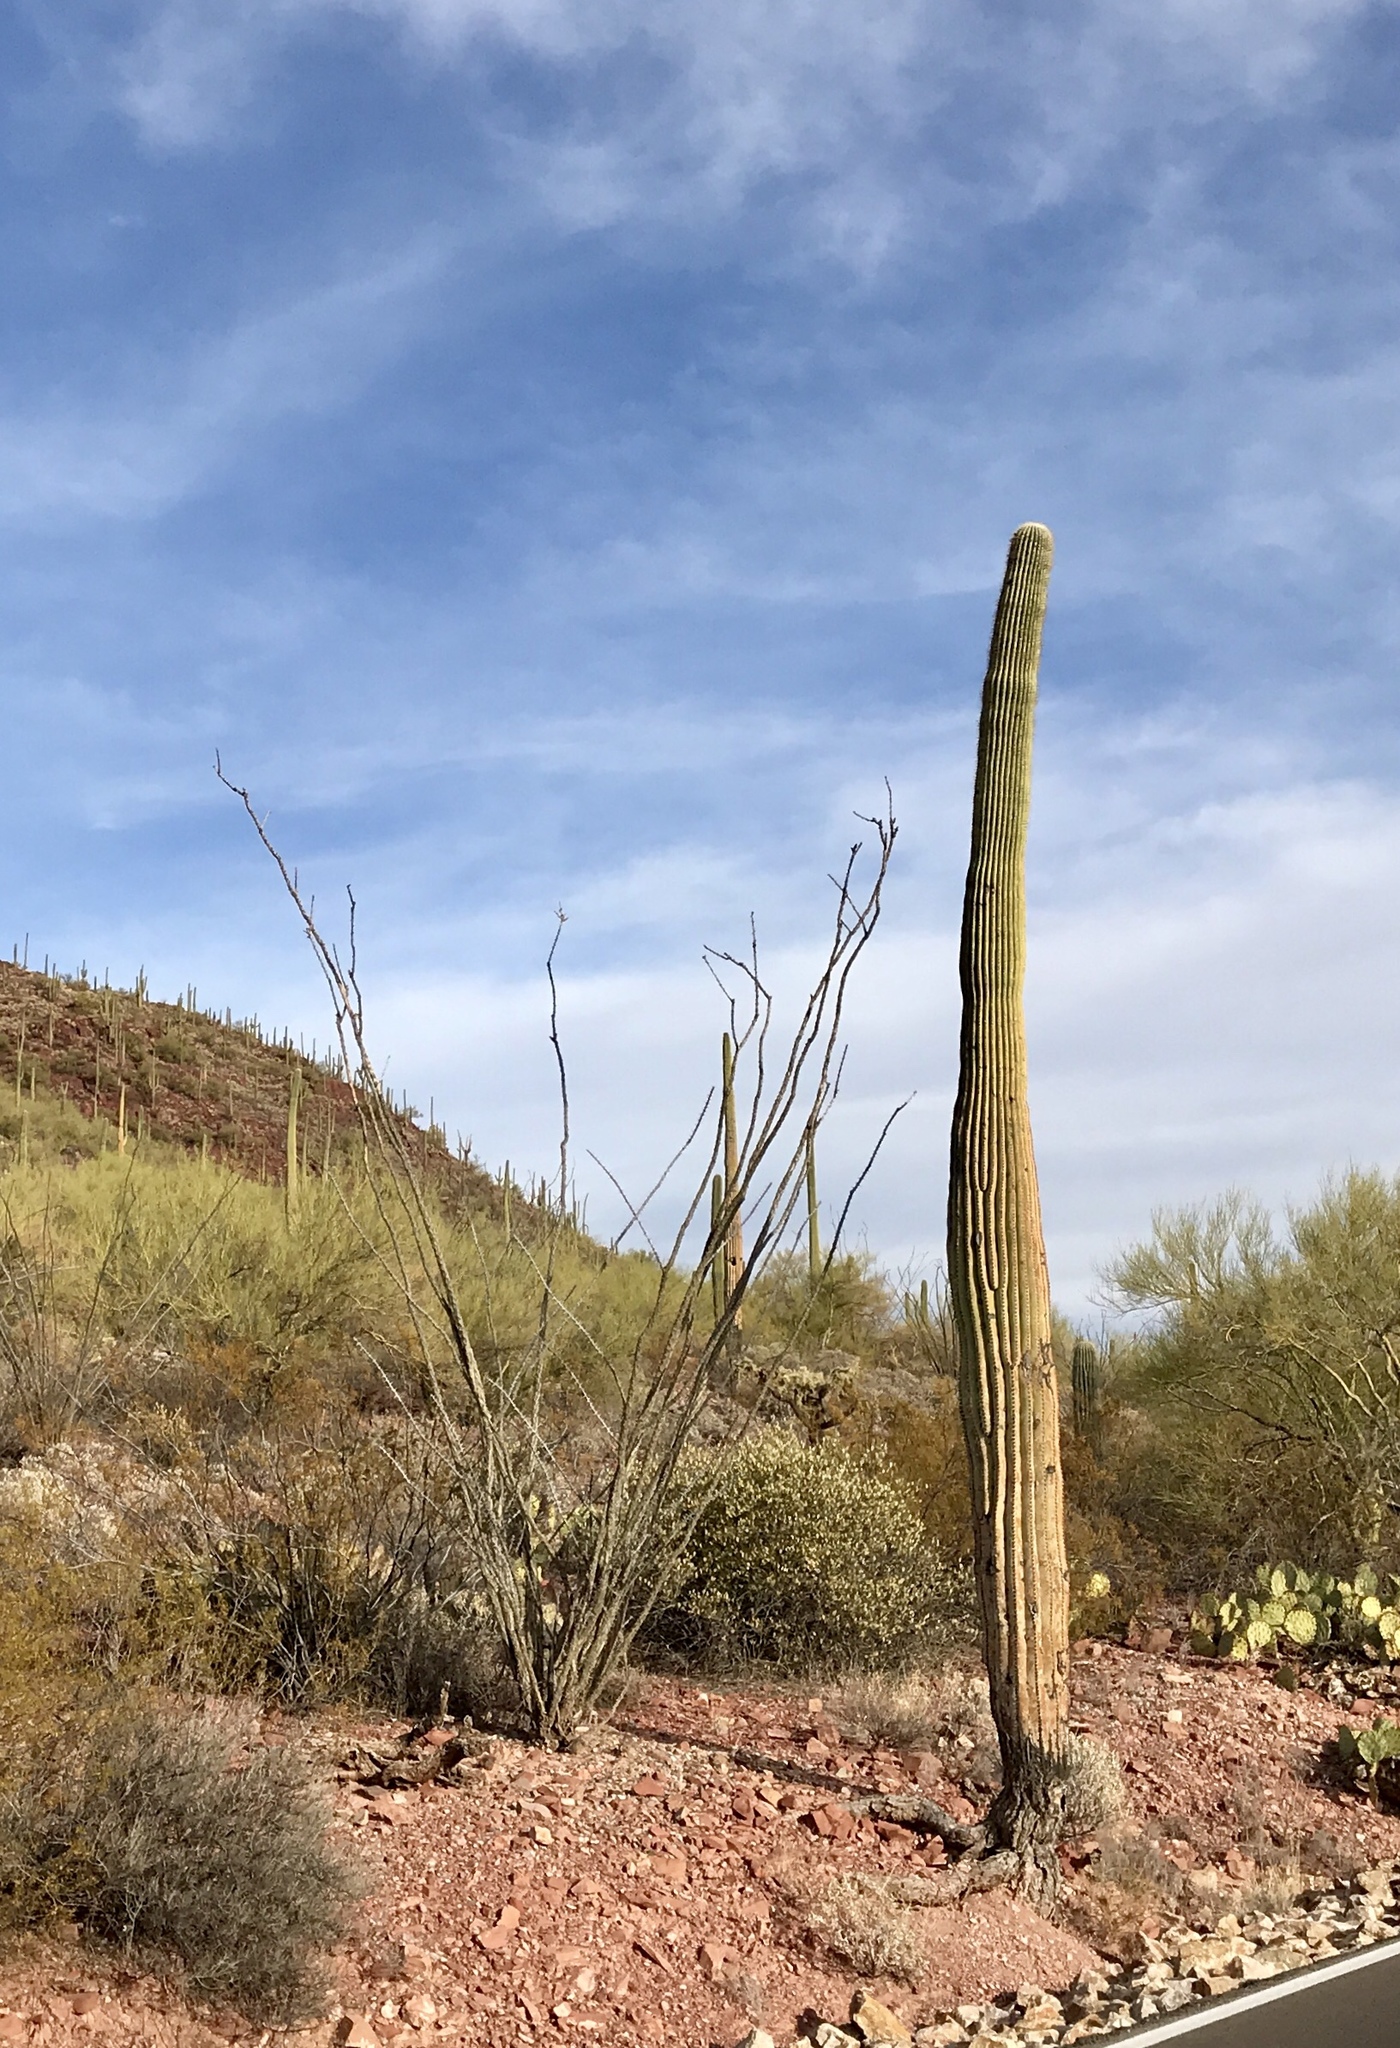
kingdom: Plantae
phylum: Tracheophyta
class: Magnoliopsida
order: Caryophyllales
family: Cactaceae
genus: Carnegiea
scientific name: Carnegiea gigantea
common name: Saguaro
